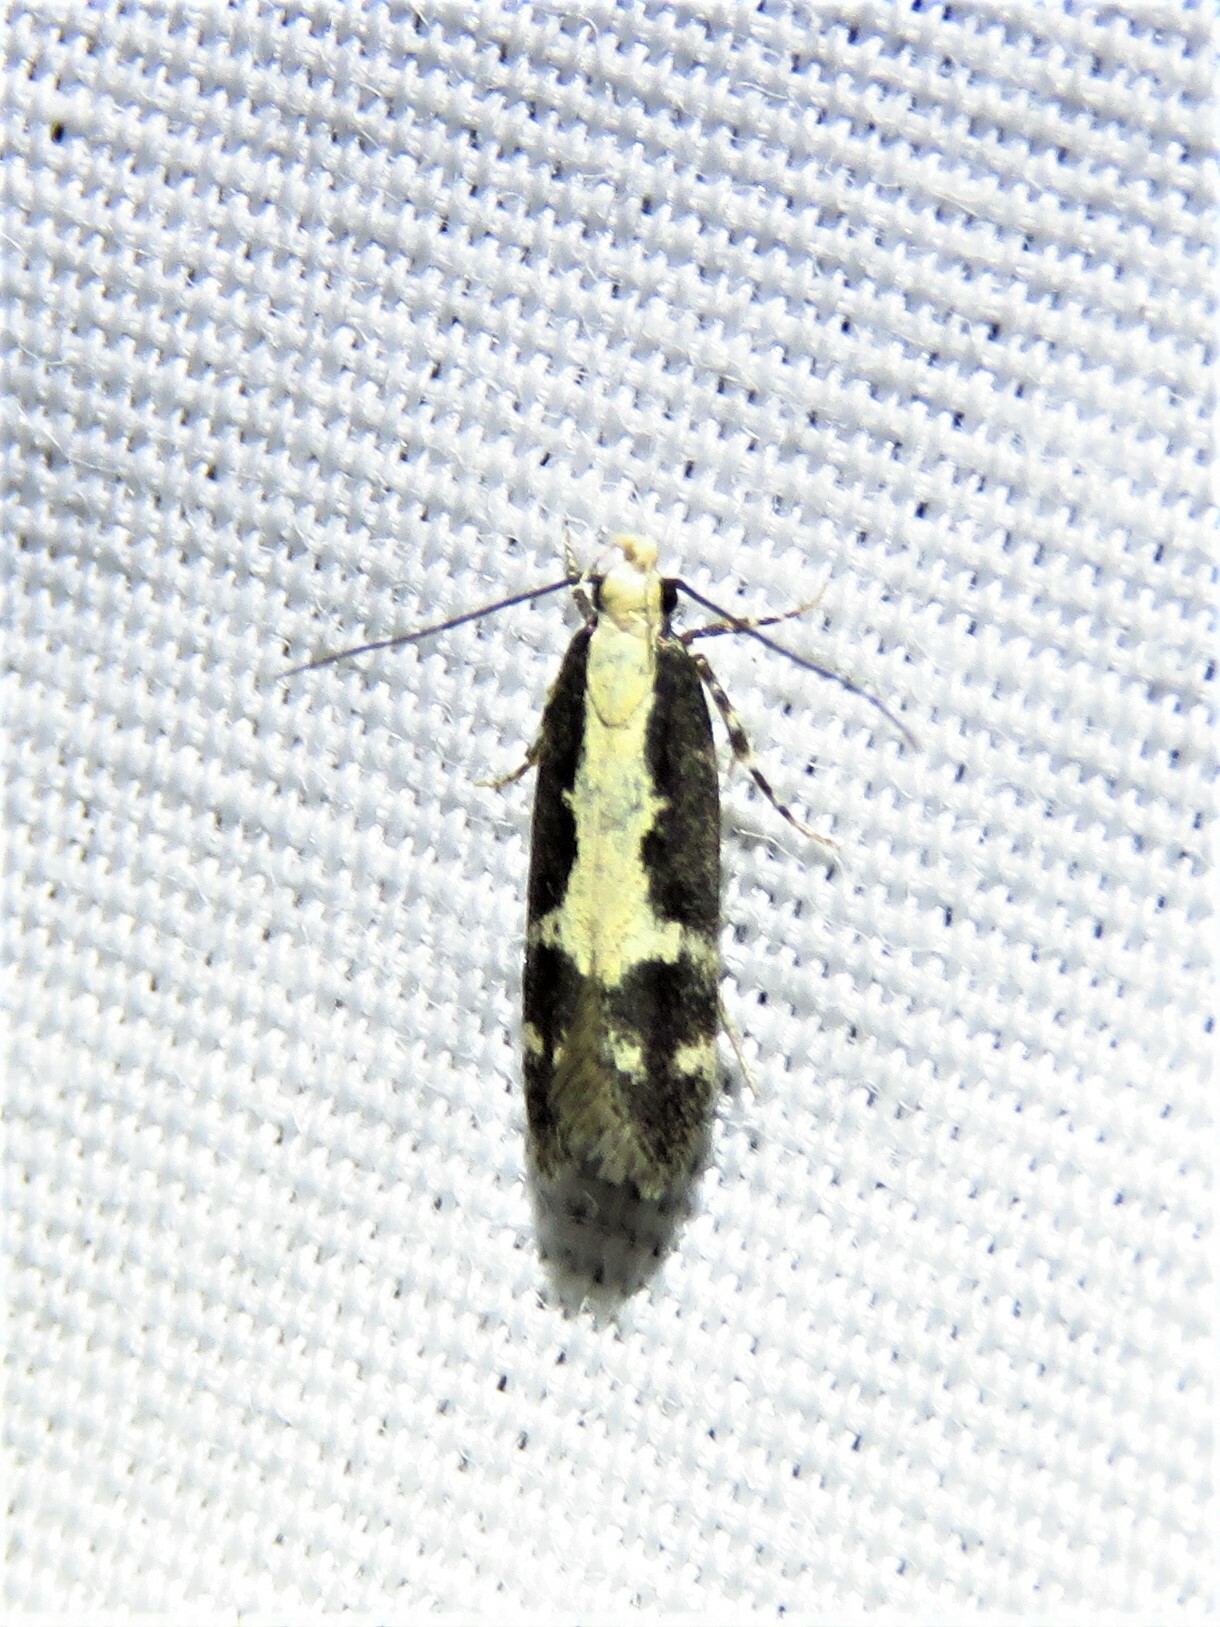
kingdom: Animalia
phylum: Arthropoda
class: Insecta
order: Lepidoptera
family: Gelechiidae
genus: Chionodes
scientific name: Chionodes dentella
